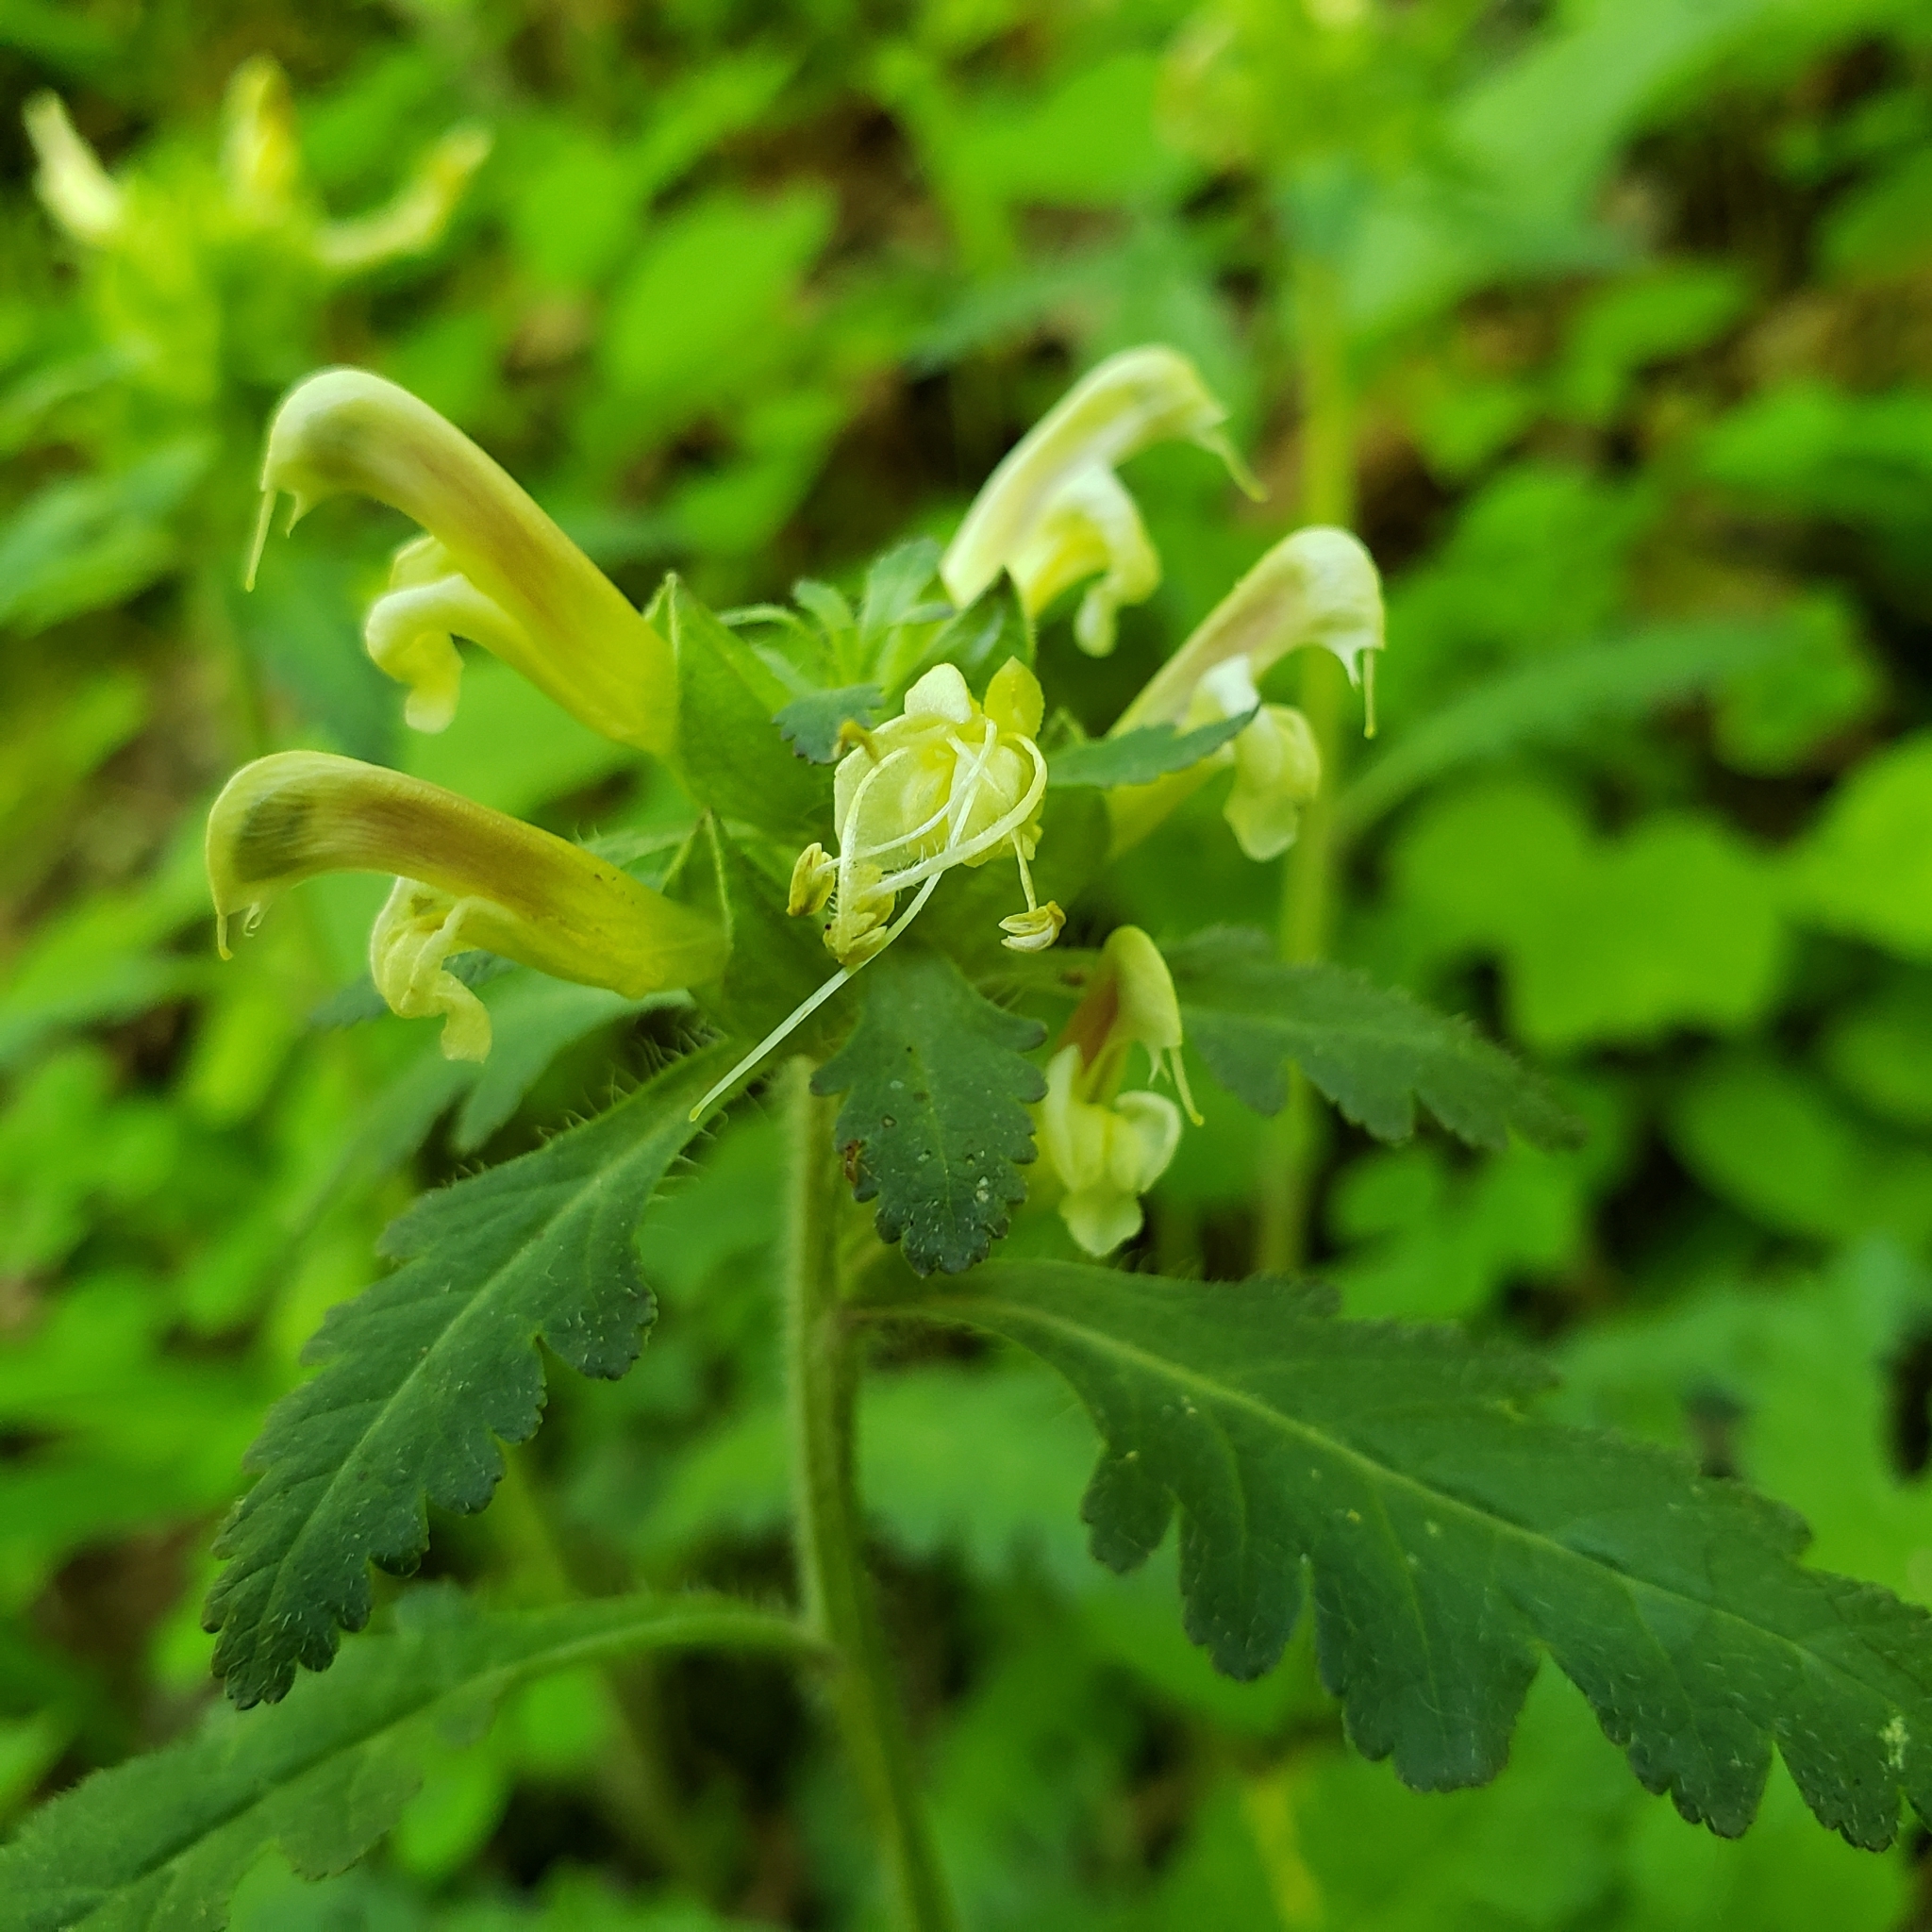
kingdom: Plantae
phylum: Tracheophyta
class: Magnoliopsida
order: Lamiales
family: Orobanchaceae
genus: Pedicularis
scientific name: Pedicularis canadensis
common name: Early lousewort
